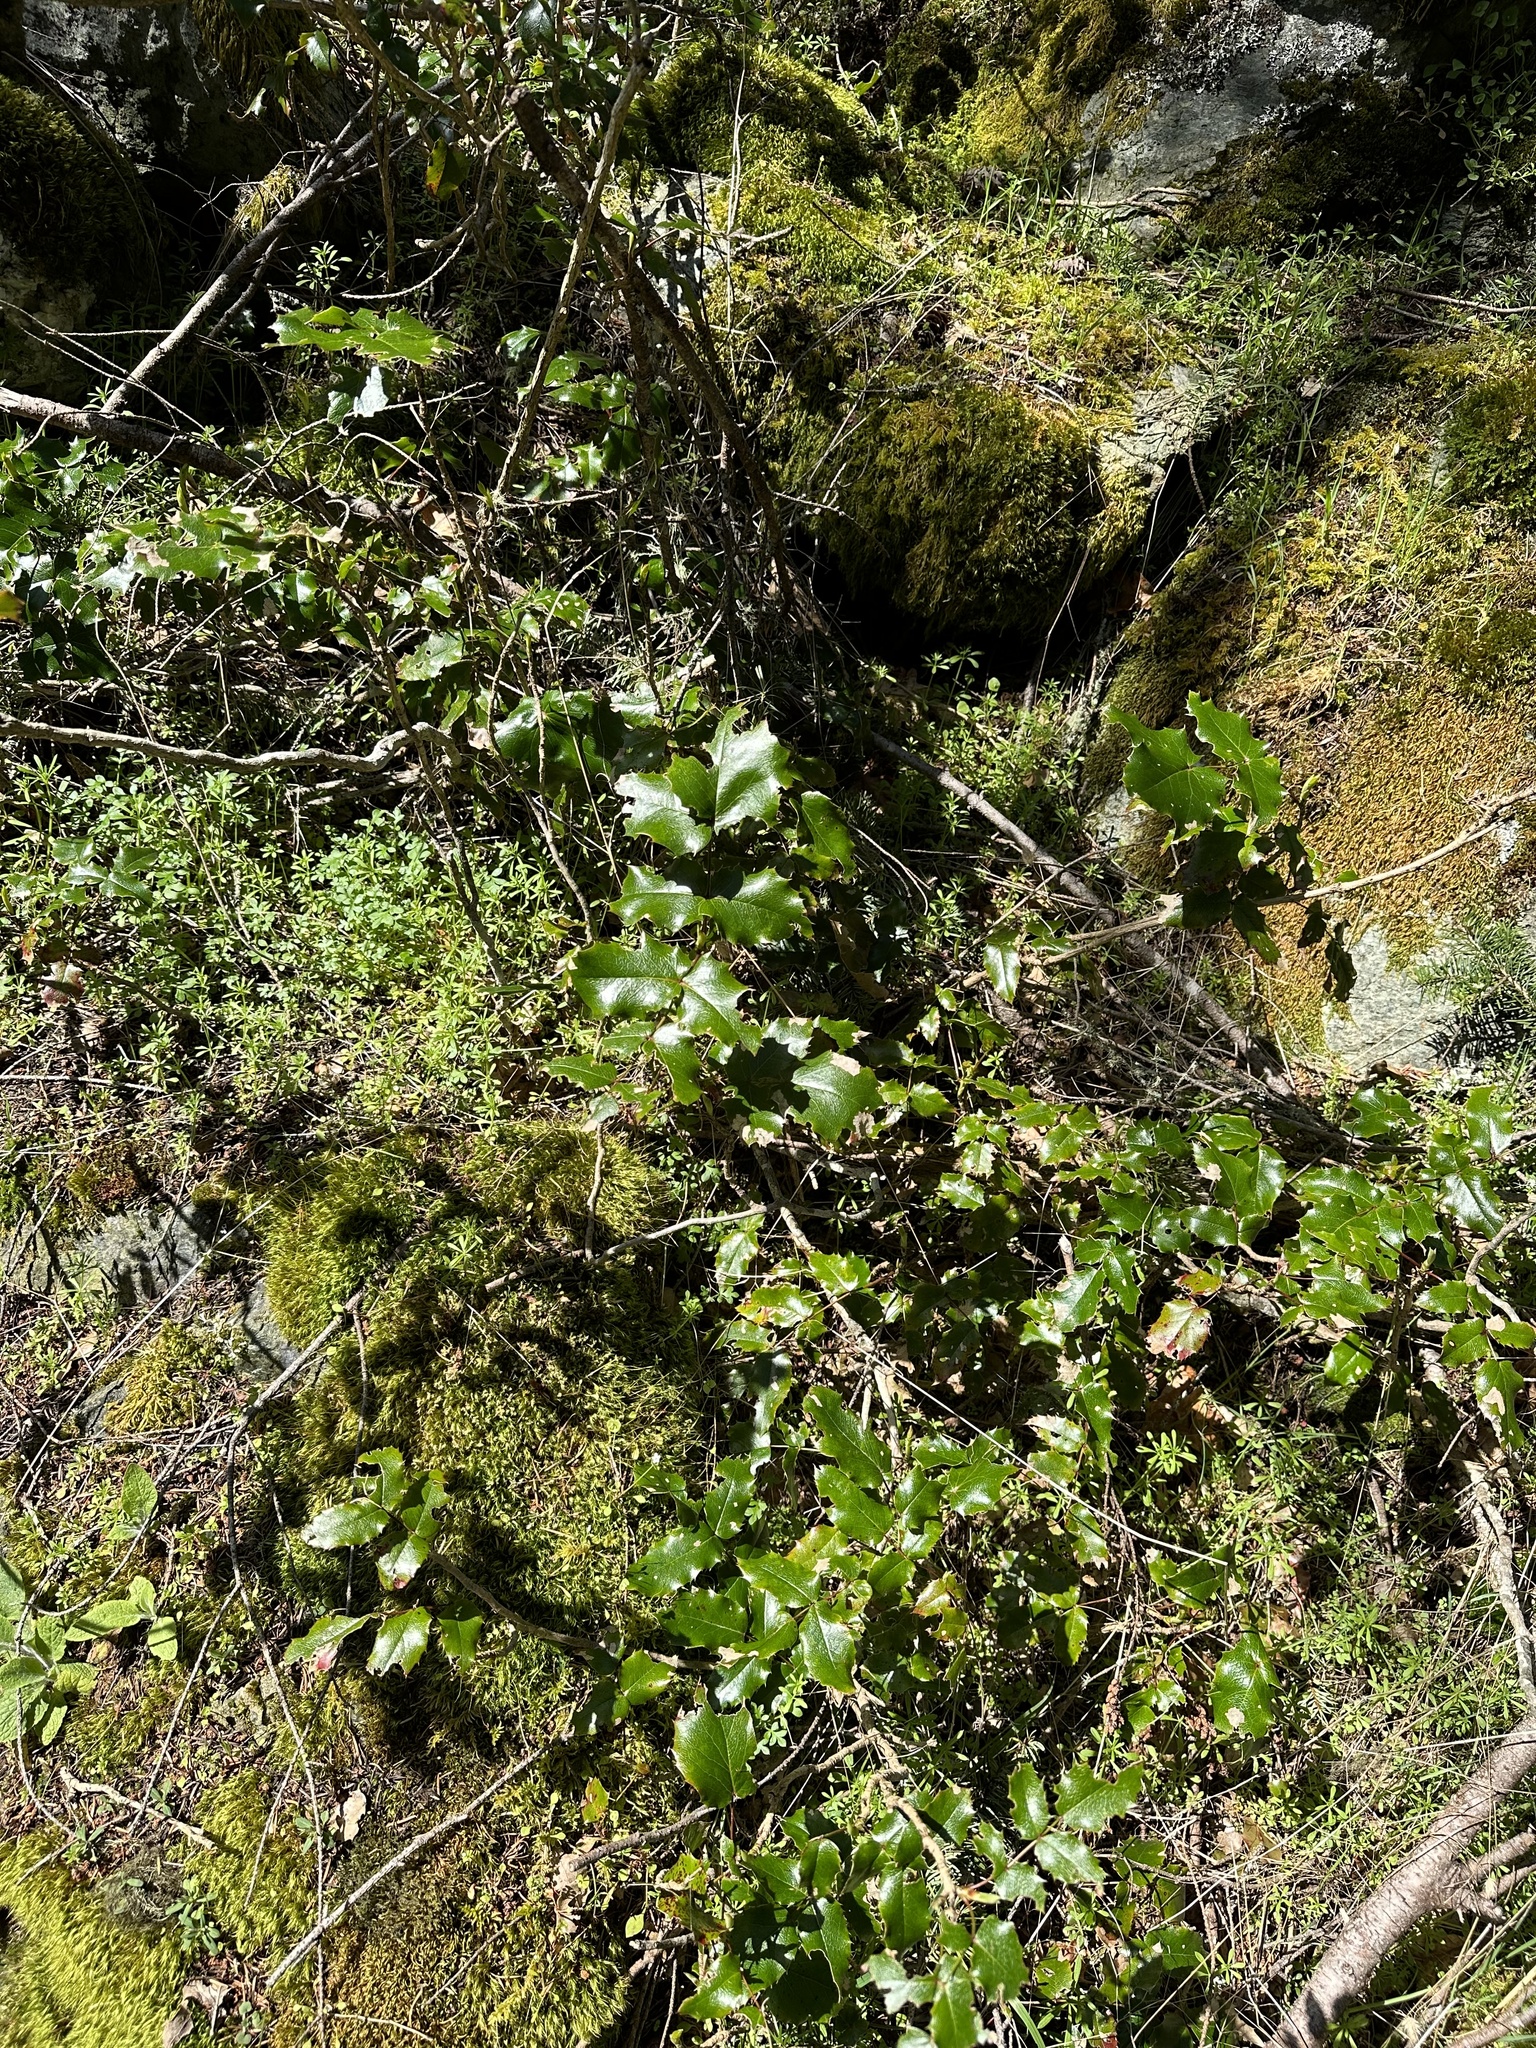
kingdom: Plantae
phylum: Tracheophyta
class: Magnoliopsida
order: Ranunculales
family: Berberidaceae
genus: Mahonia
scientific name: Mahonia aquifolium
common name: Oregon-grape
